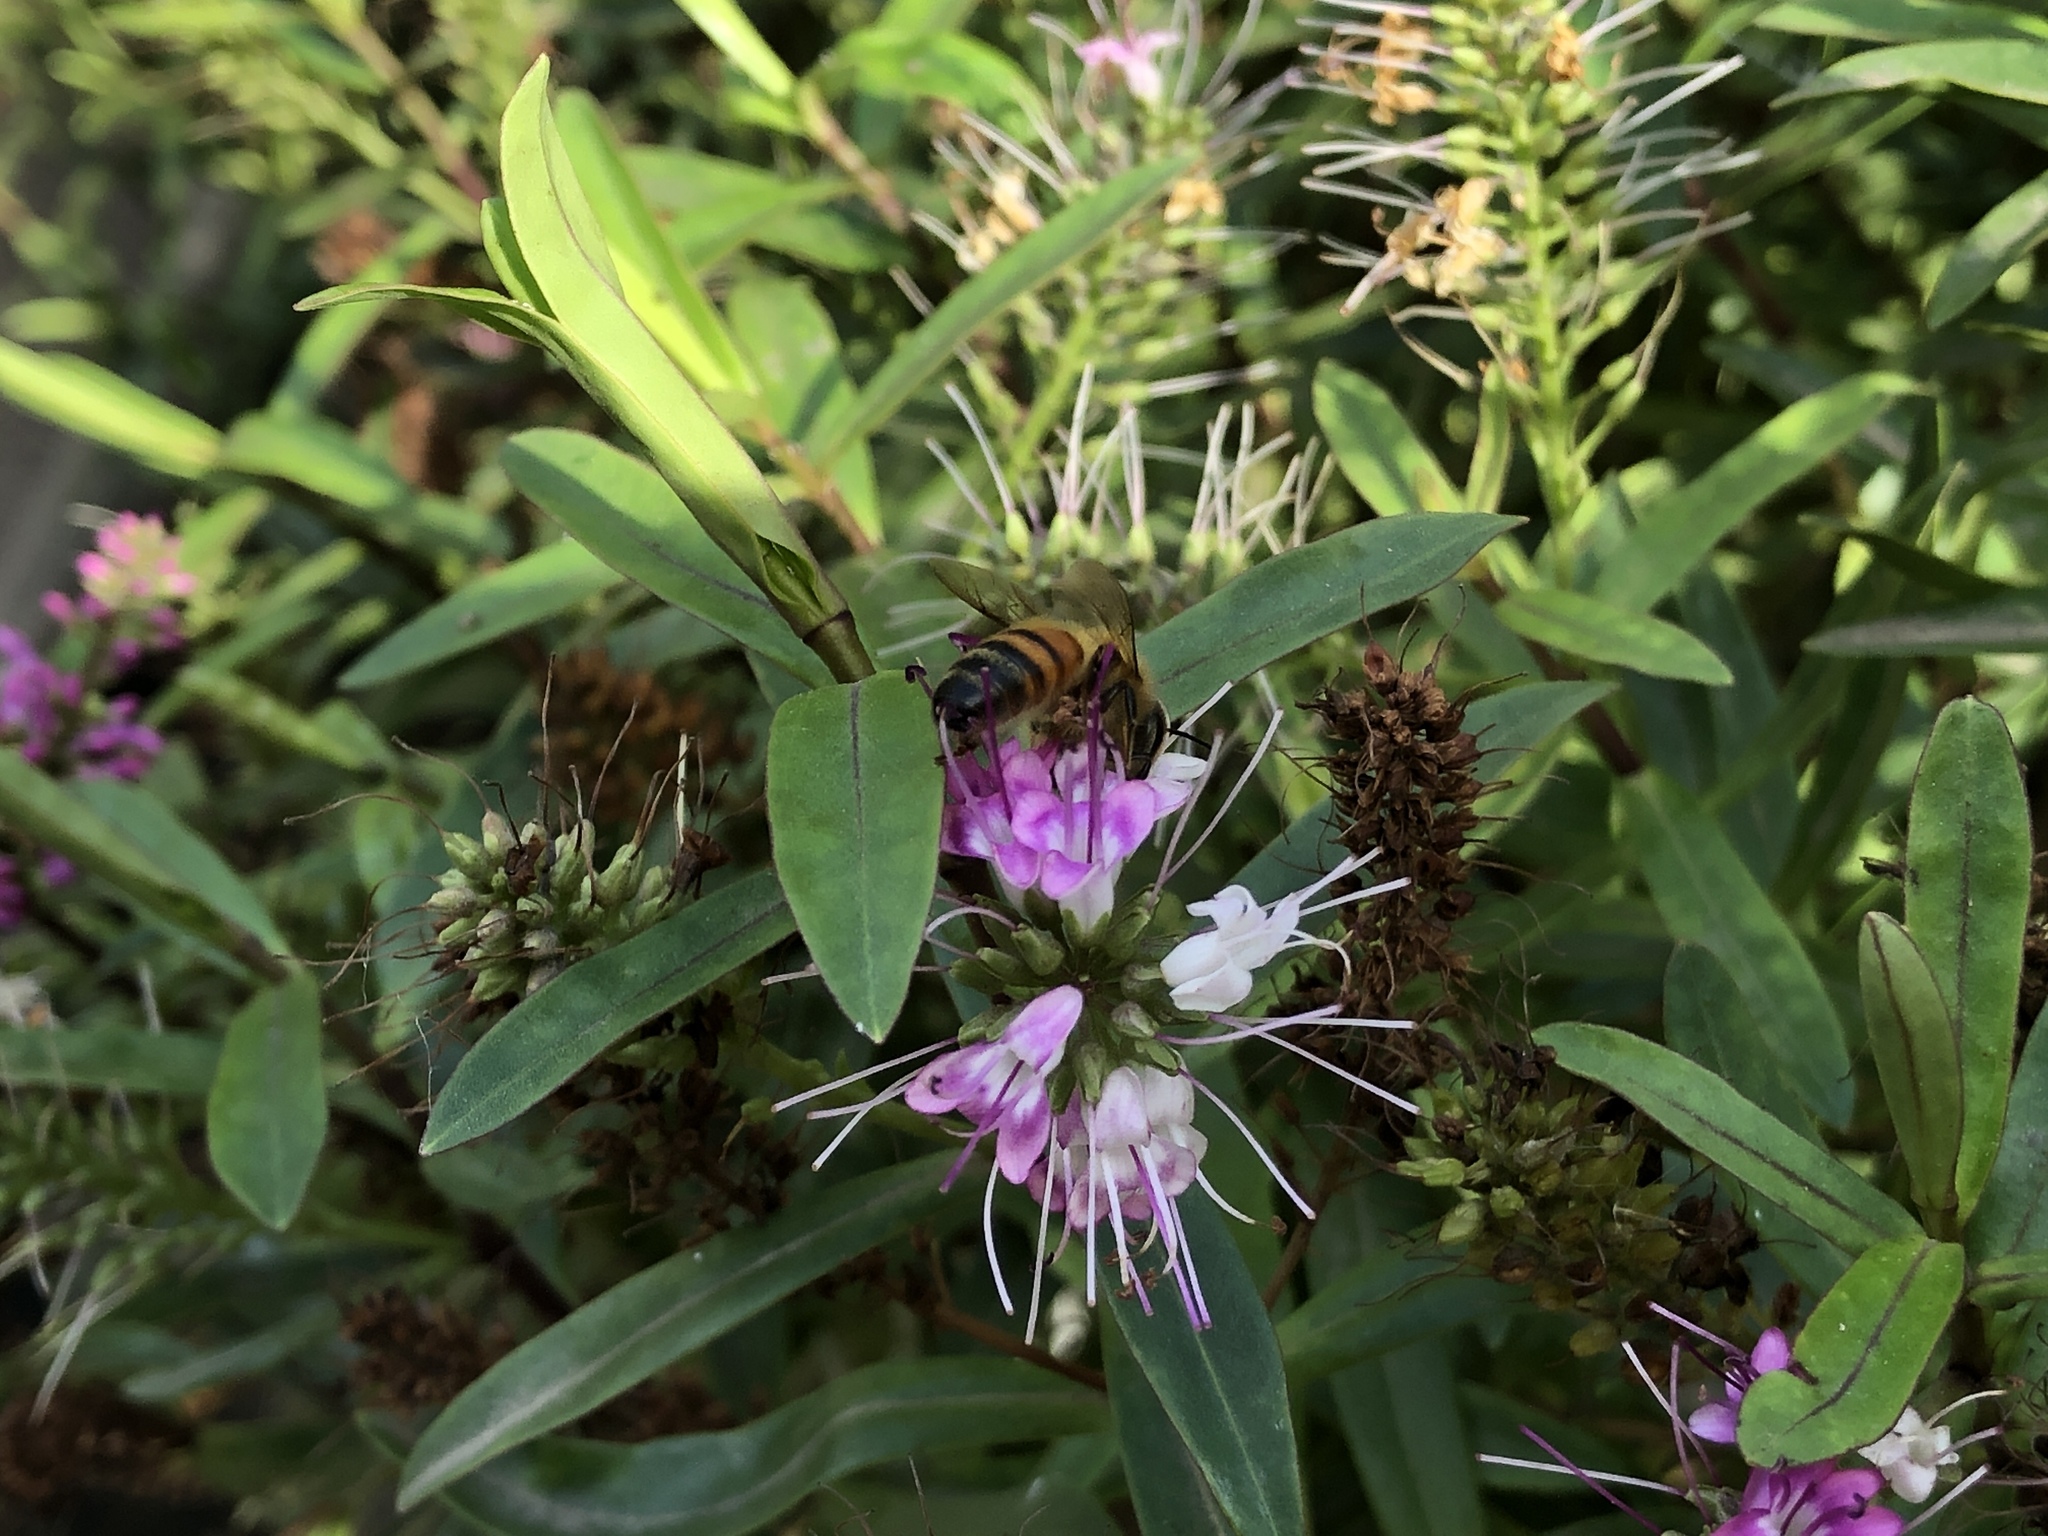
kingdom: Animalia
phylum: Arthropoda
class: Insecta
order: Hymenoptera
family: Apidae
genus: Apis
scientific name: Apis mellifera
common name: Honey bee
